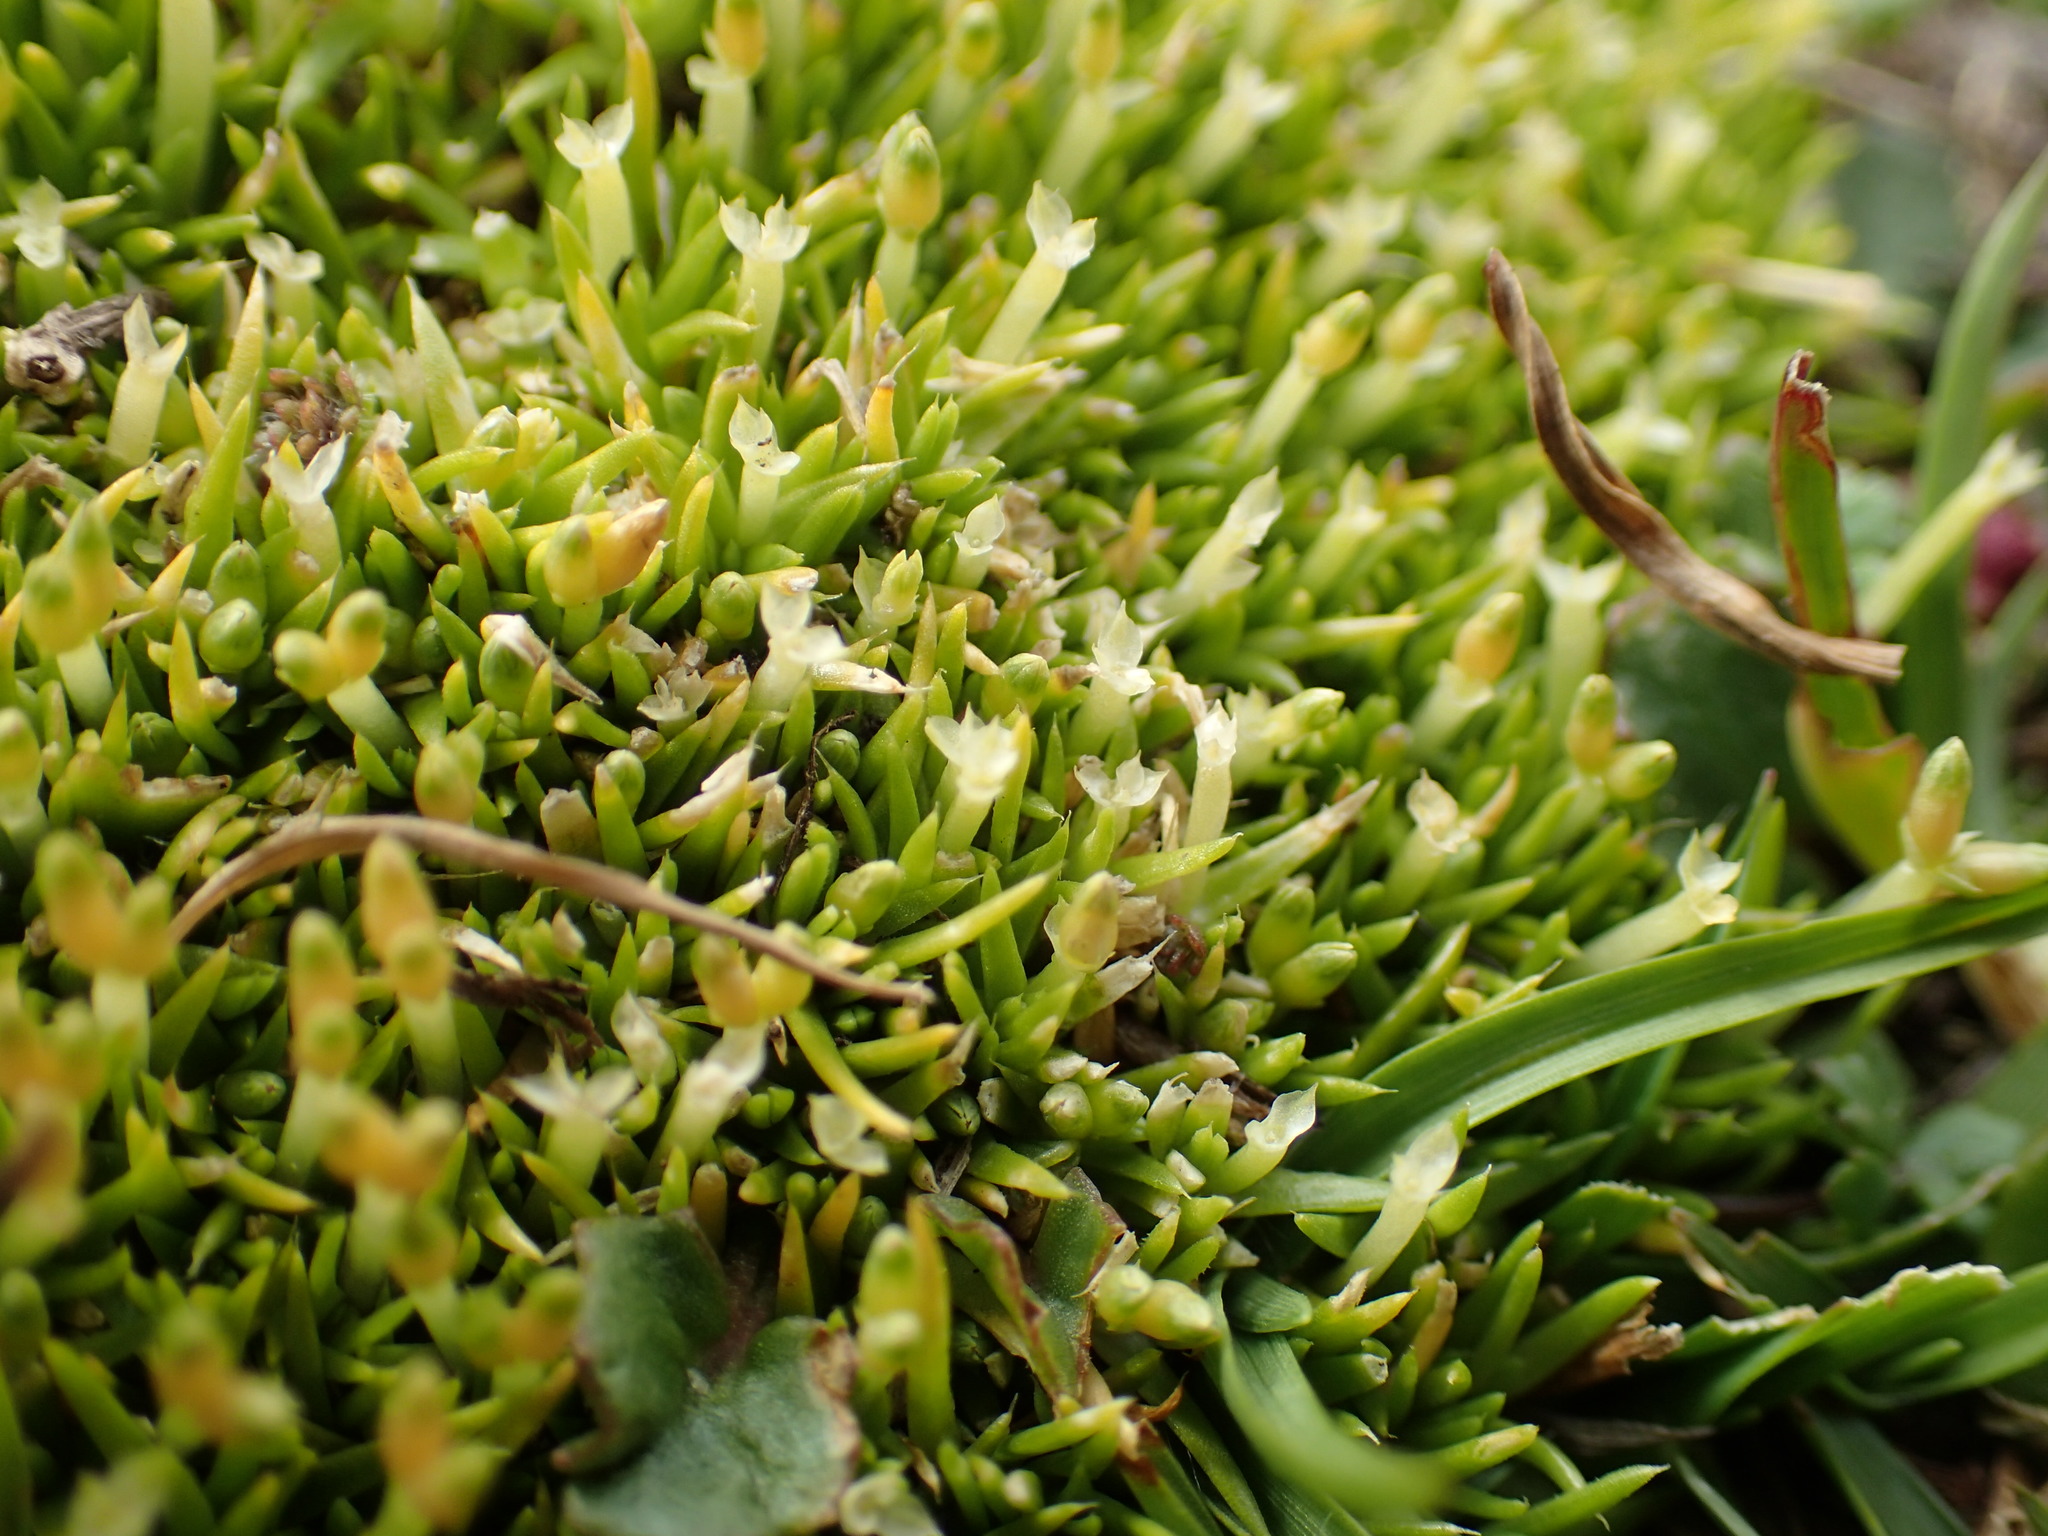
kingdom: Plantae
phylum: Tracheophyta
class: Magnoliopsida
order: Caryophyllales
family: Caryophyllaceae
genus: Scleranthus
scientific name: Scleranthus biflorus
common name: Two-flower knawel
